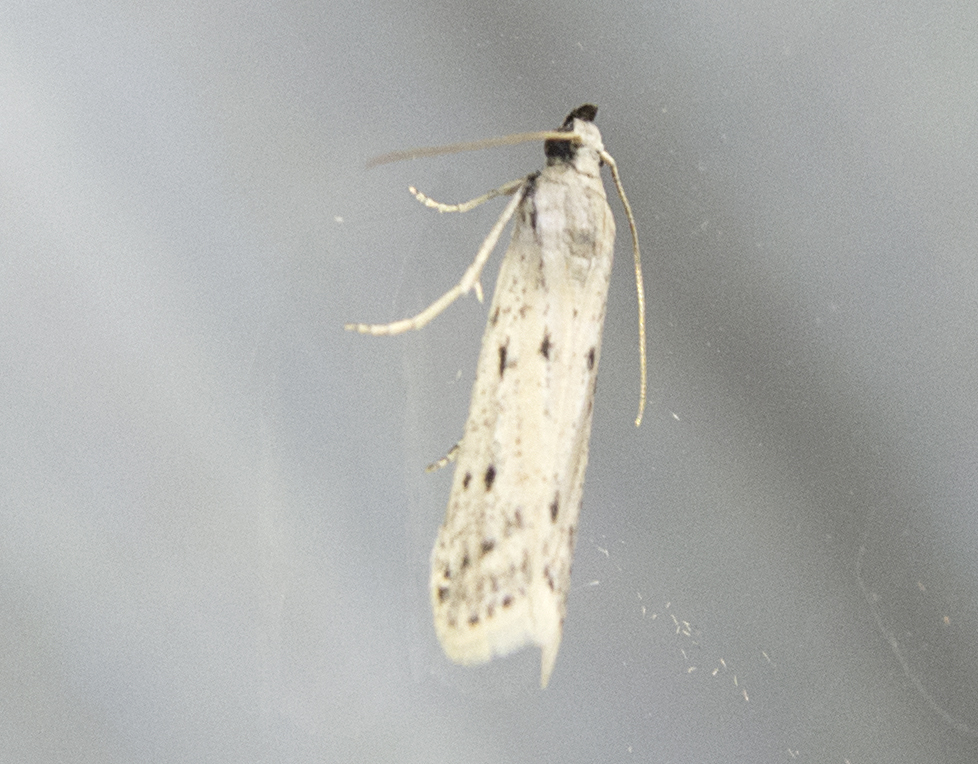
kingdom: Animalia
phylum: Arthropoda
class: Insecta
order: Lepidoptera
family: Pyralidae
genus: Homoeosoma
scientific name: Homoeosoma nebulella
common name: Large clouded knot-horn
